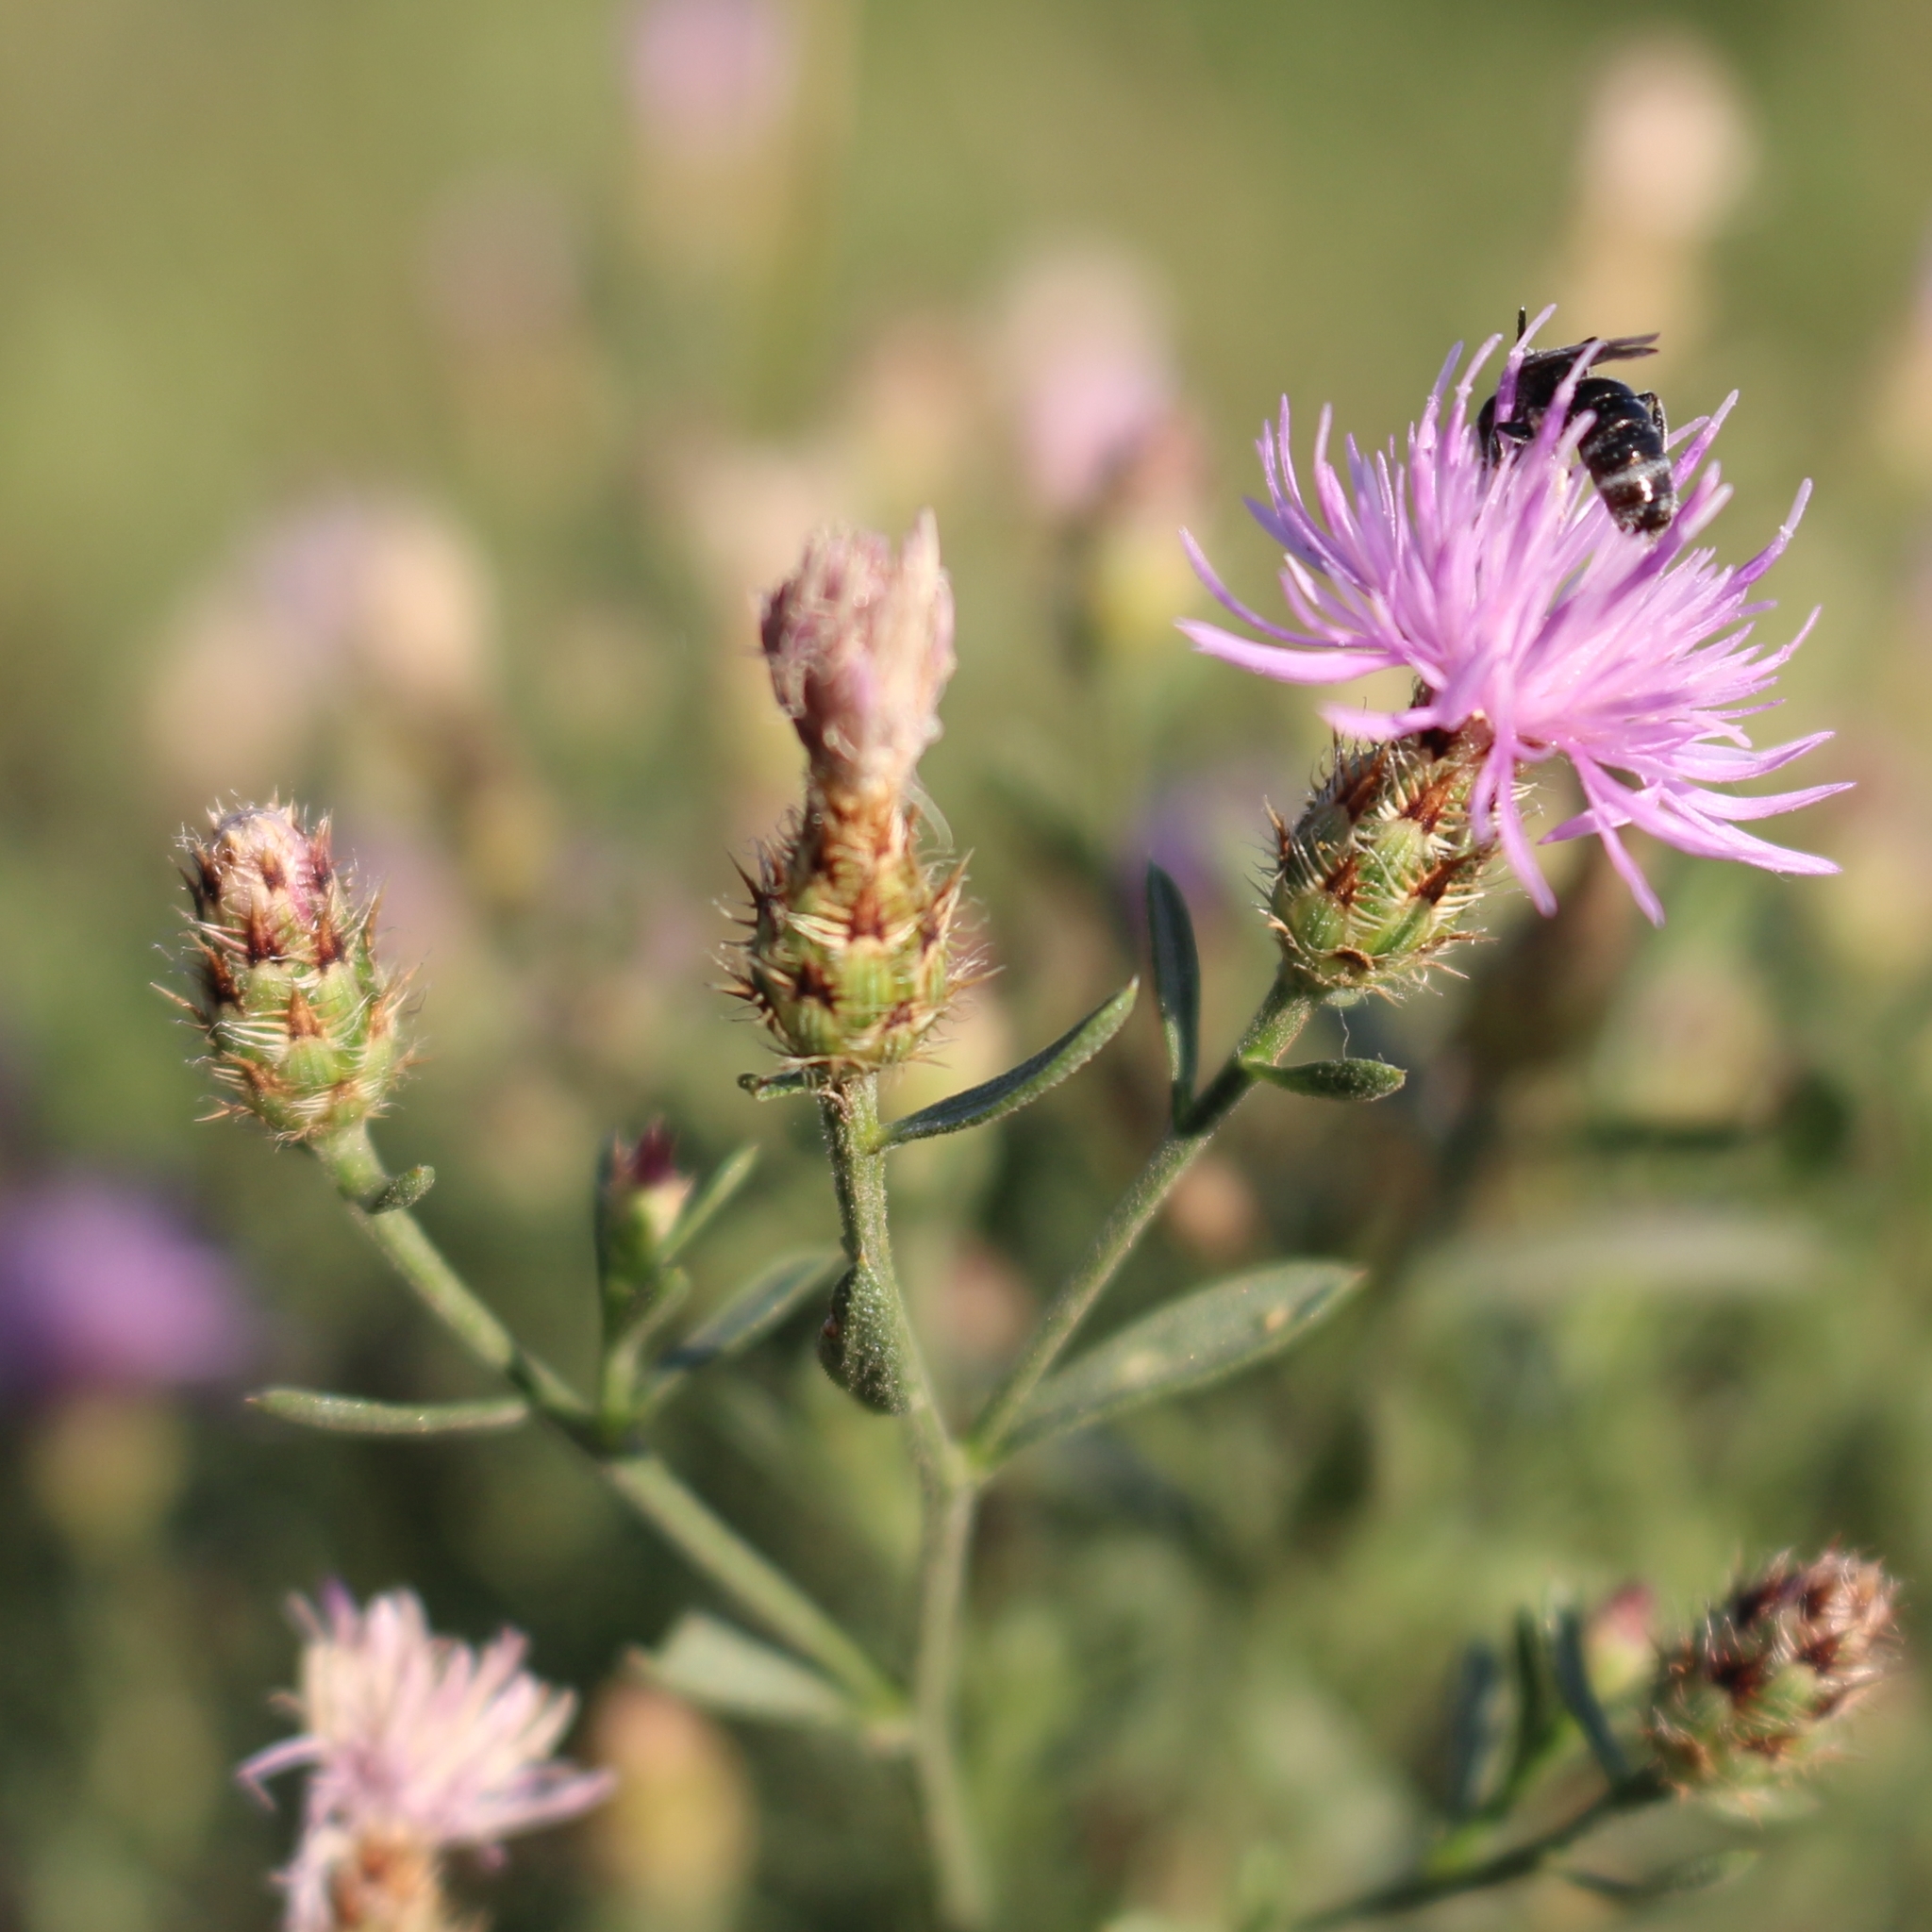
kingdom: Plantae
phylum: Tracheophyta
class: Magnoliopsida
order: Asterales
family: Asteraceae
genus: Centaurea
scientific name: Centaurea diffusa
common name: Diffuse knapweed
